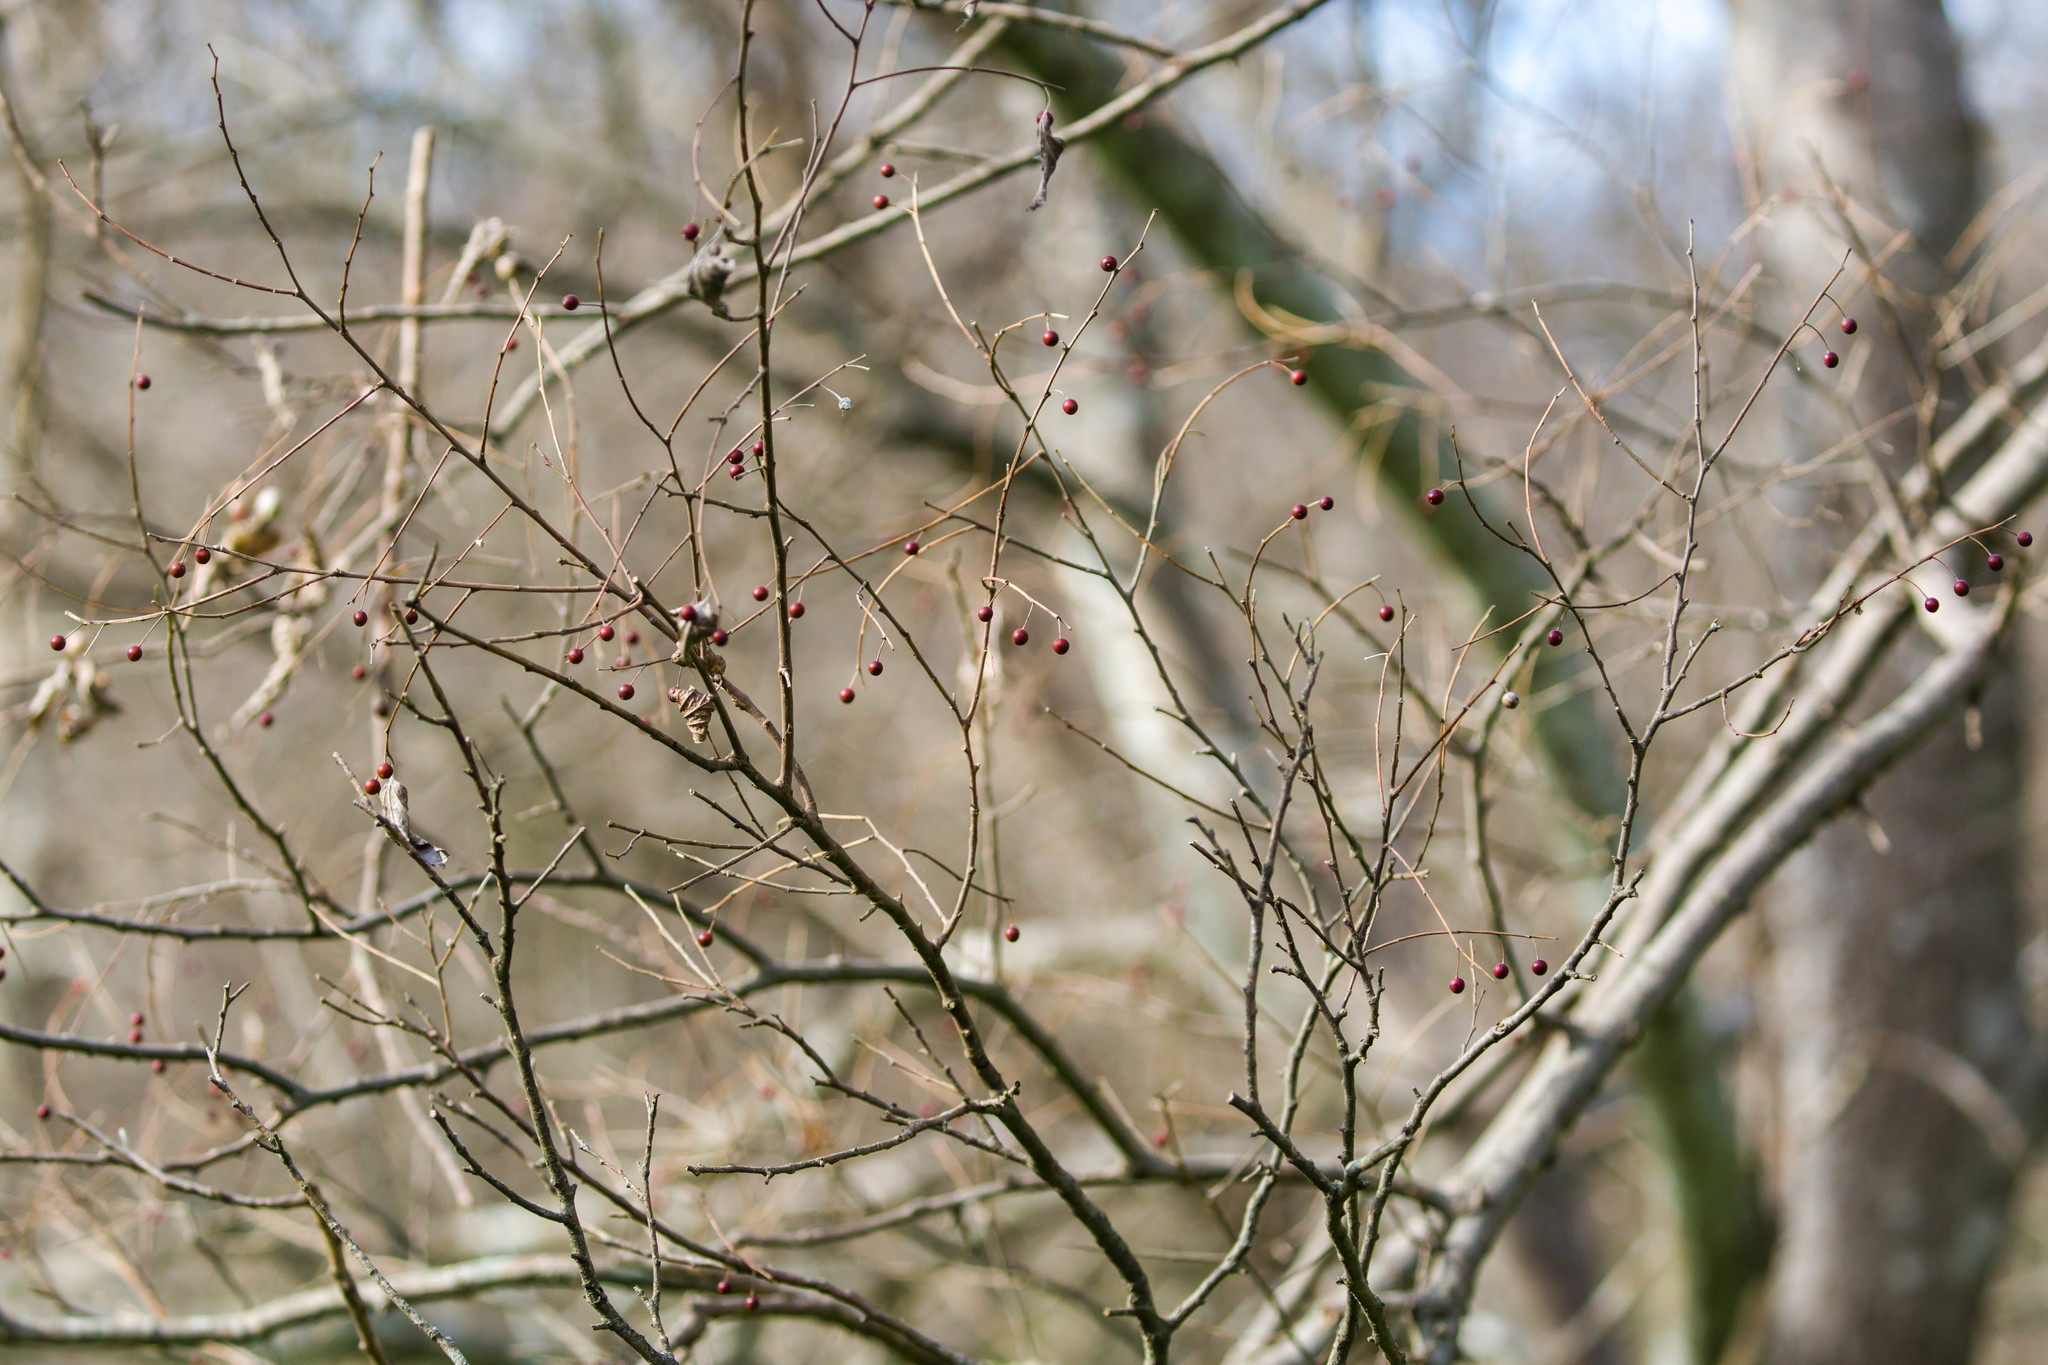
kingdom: Plantae
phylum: Tracheophyta
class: Magnoliopsida
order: Rosales
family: Cannabaceae
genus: Celtis
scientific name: Celtis laevigata
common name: Sugarberry
